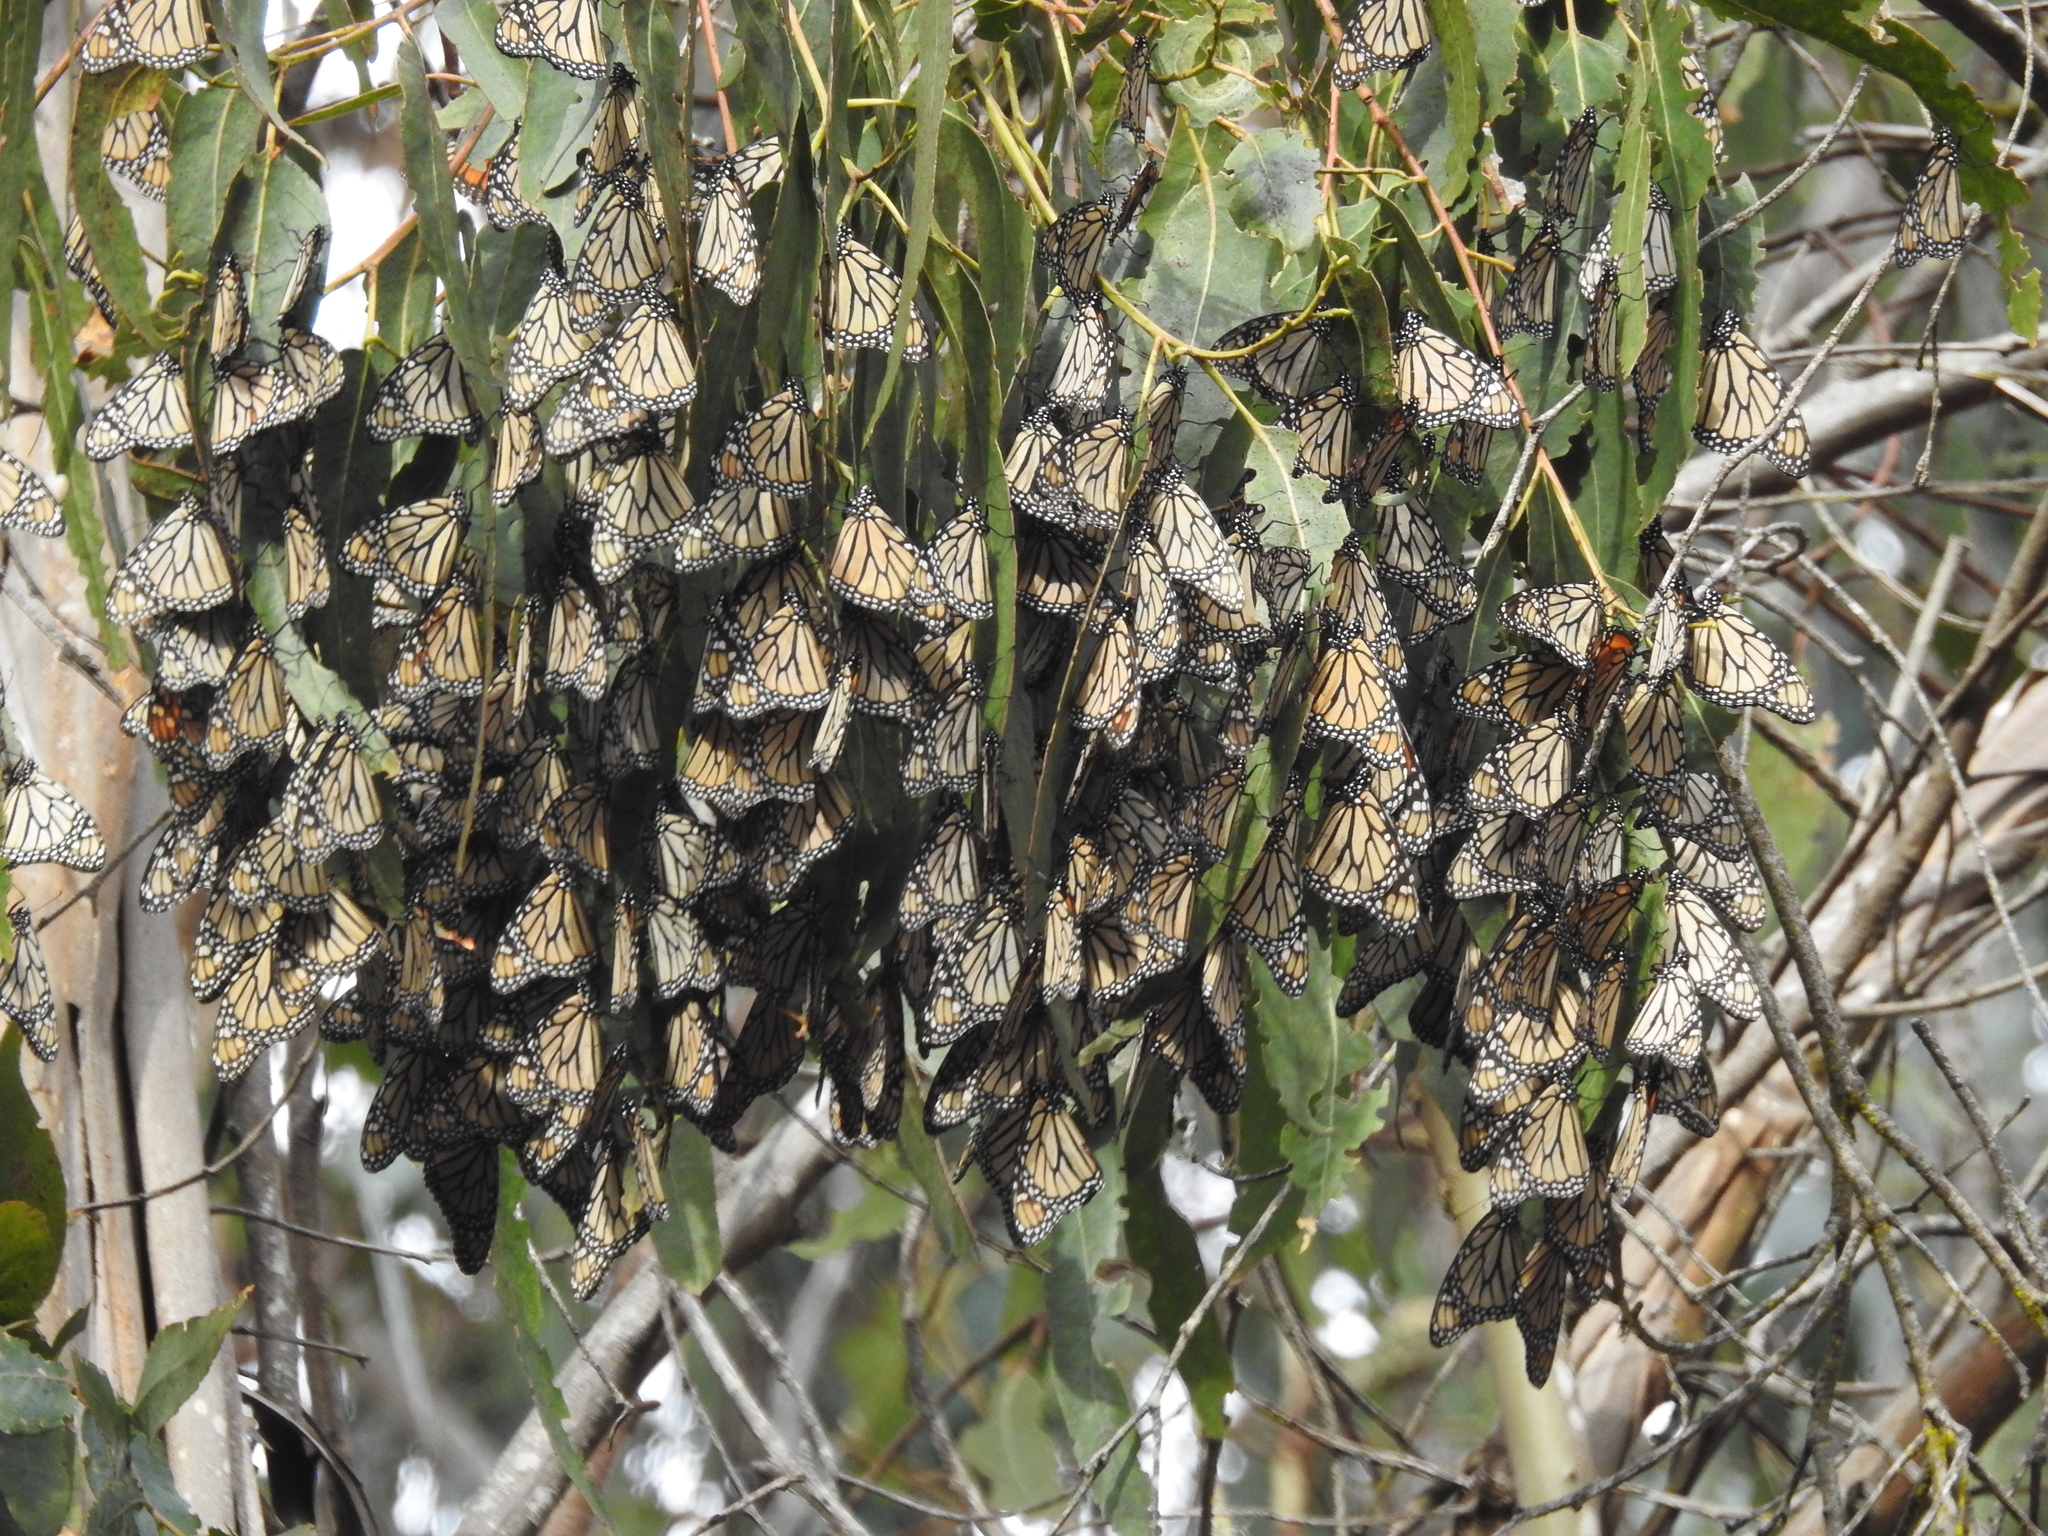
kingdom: Animalia
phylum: Arthropoda
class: Insecta
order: Lepidoptera
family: Nymphalidae
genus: Danaus
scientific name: Danaus plexippus
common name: Monarch
